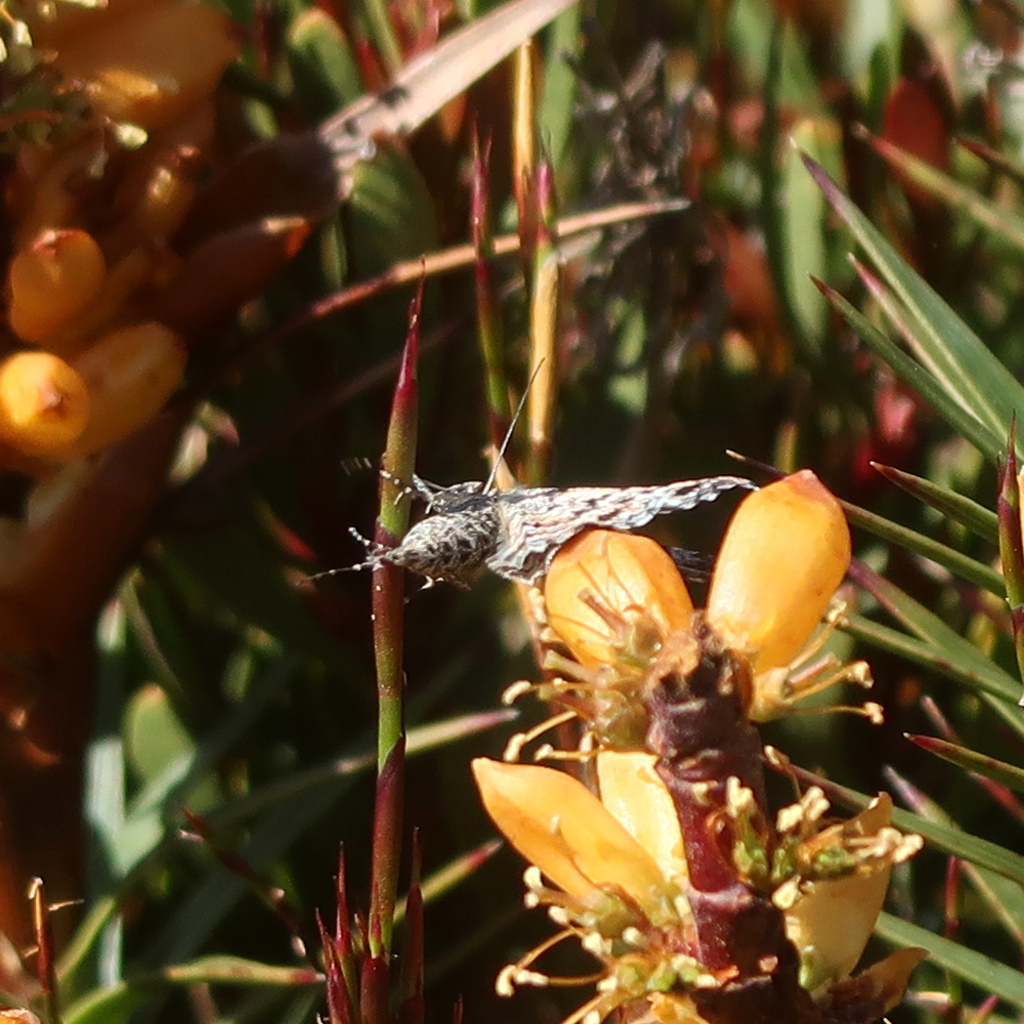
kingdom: Animalia
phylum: Arthropoda
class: Insecta
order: Lepidoptera
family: Geometridae
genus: Chrysolarentia
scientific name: Chrysolarentia bertha
